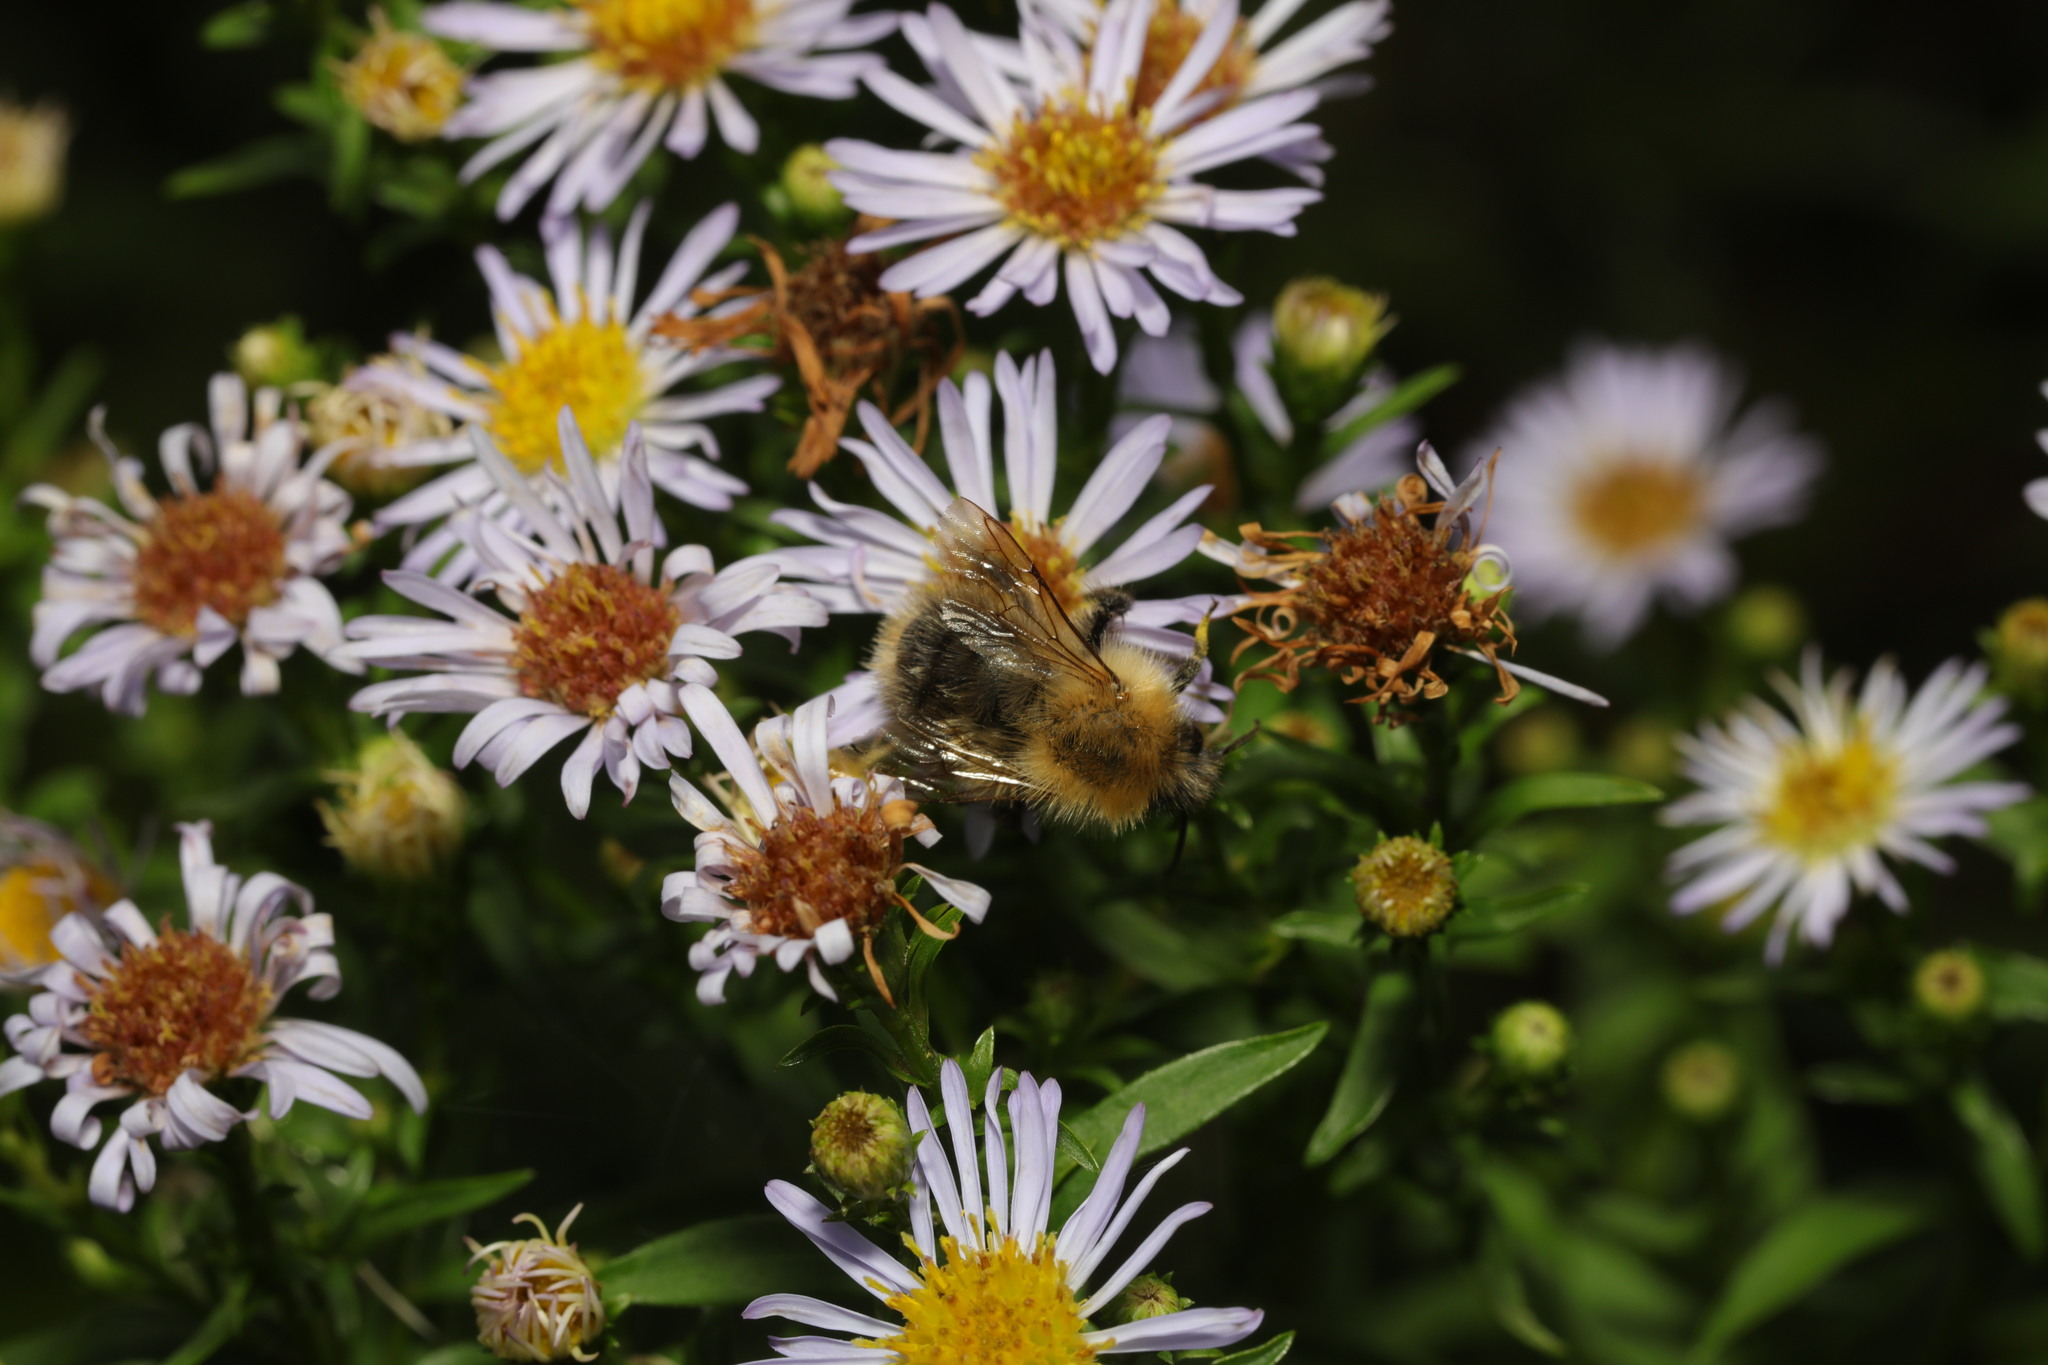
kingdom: Animalia
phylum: Arthropoda
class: Insecta
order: Hymenoptera
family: Apidae
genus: Bombus
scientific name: Bombus pascuorum
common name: Common carder bee
